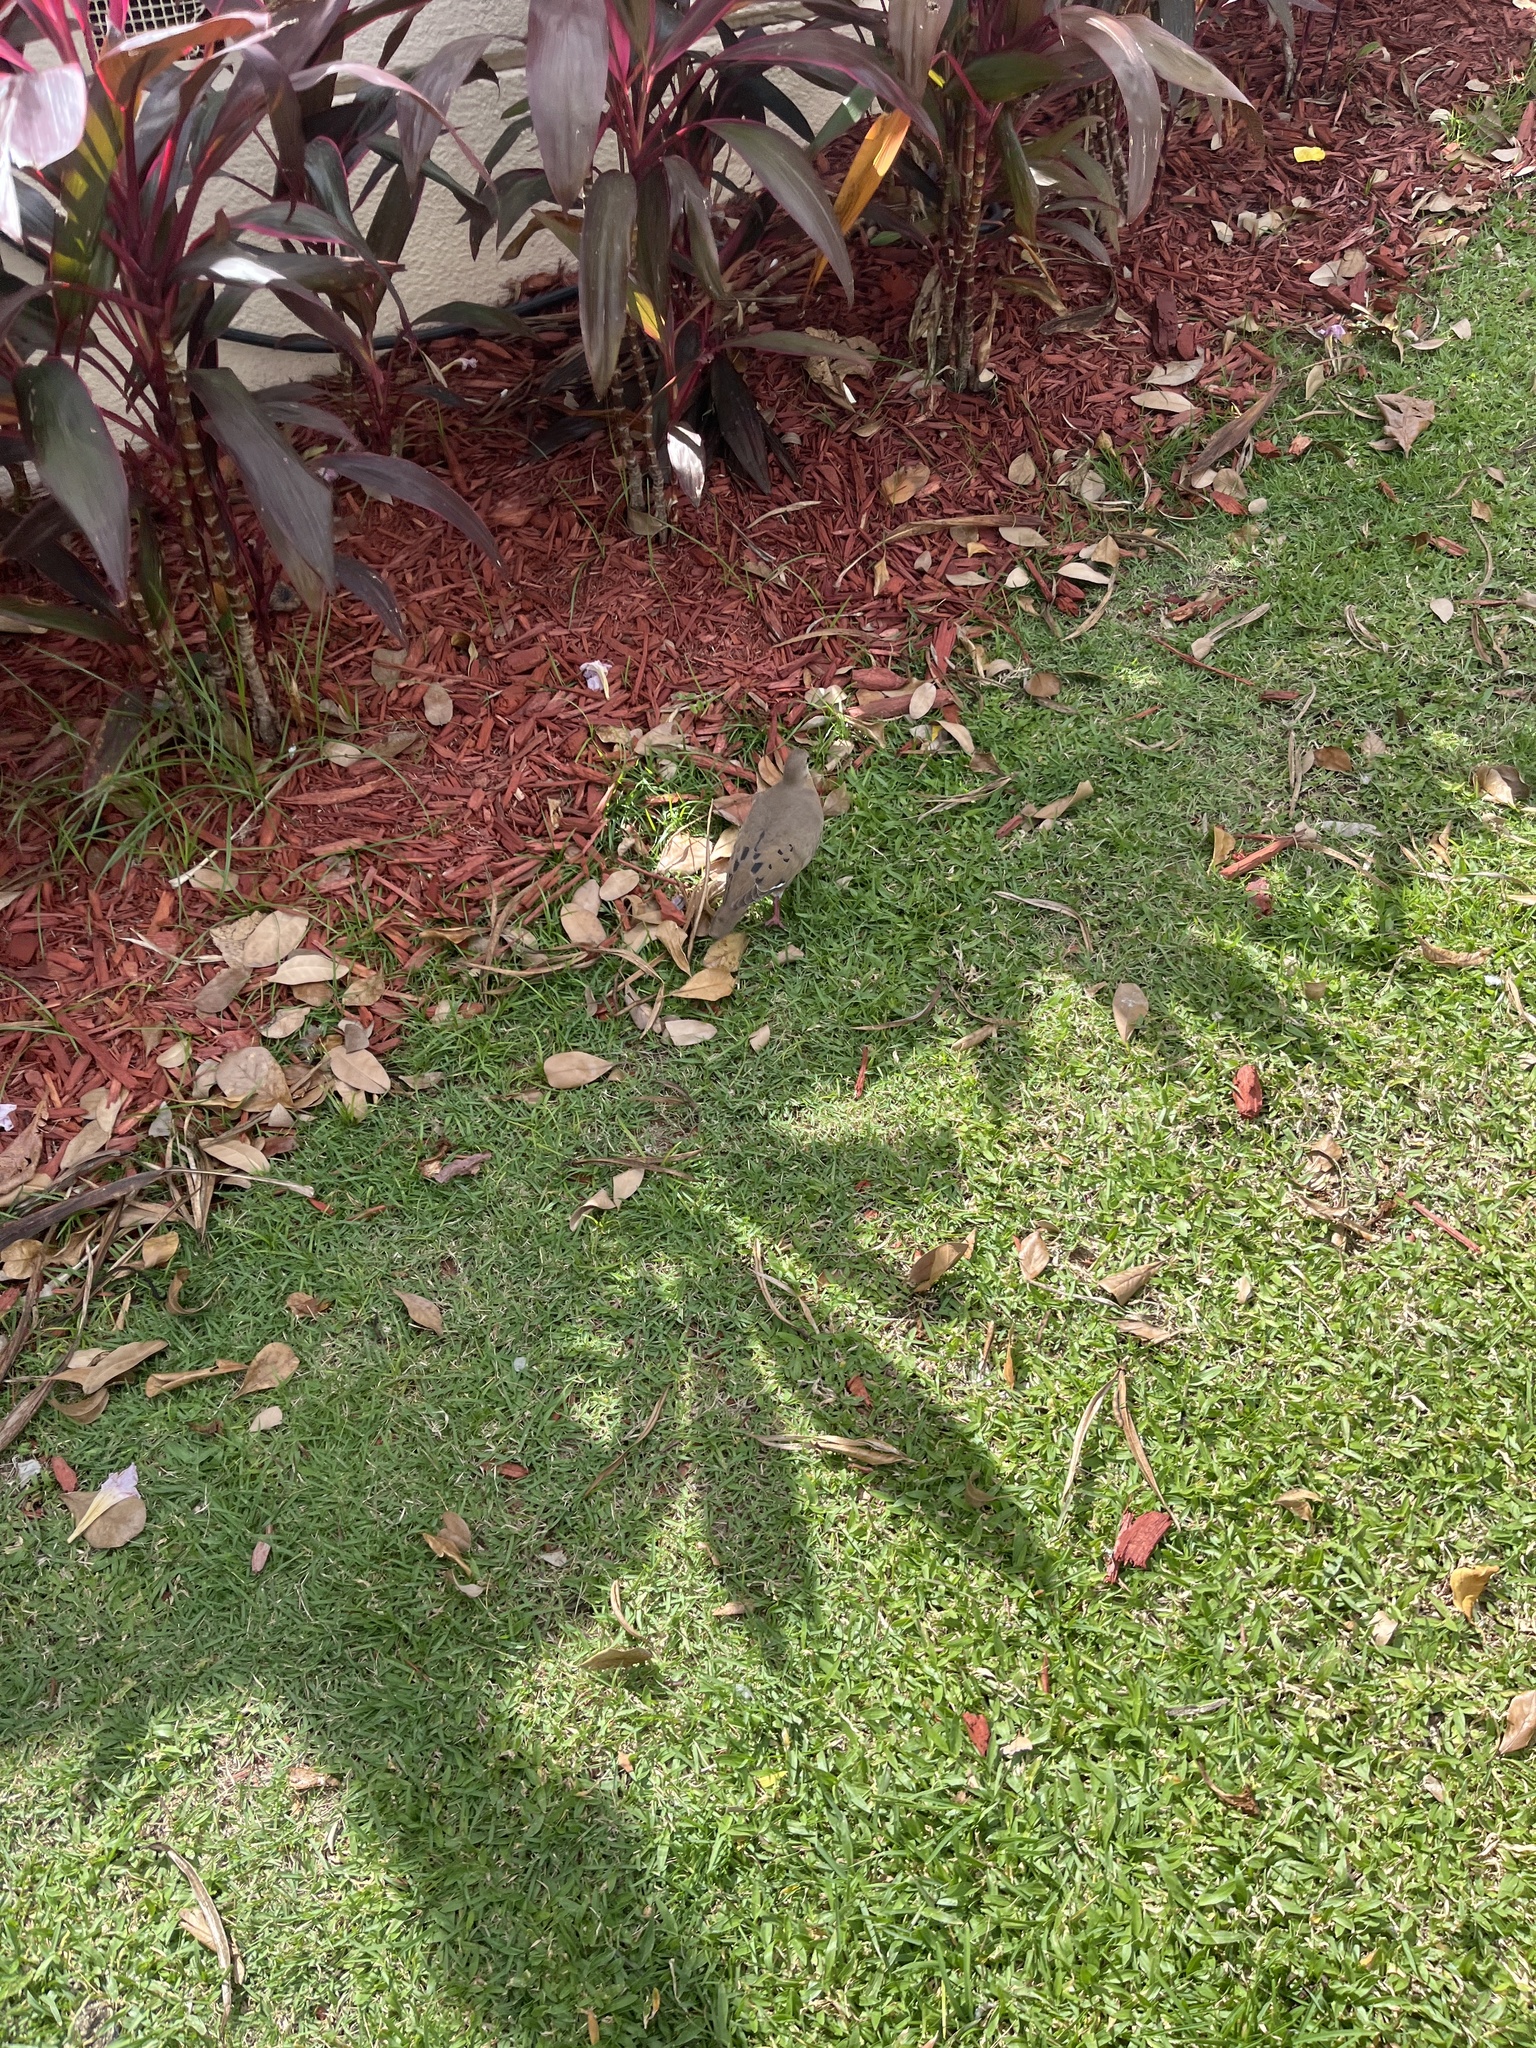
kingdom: Animalia
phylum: Chordata
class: Aves
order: Columbiformes
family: Columbidae
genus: Zenaida
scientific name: Zenaida aurita
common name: Zenaida dove
